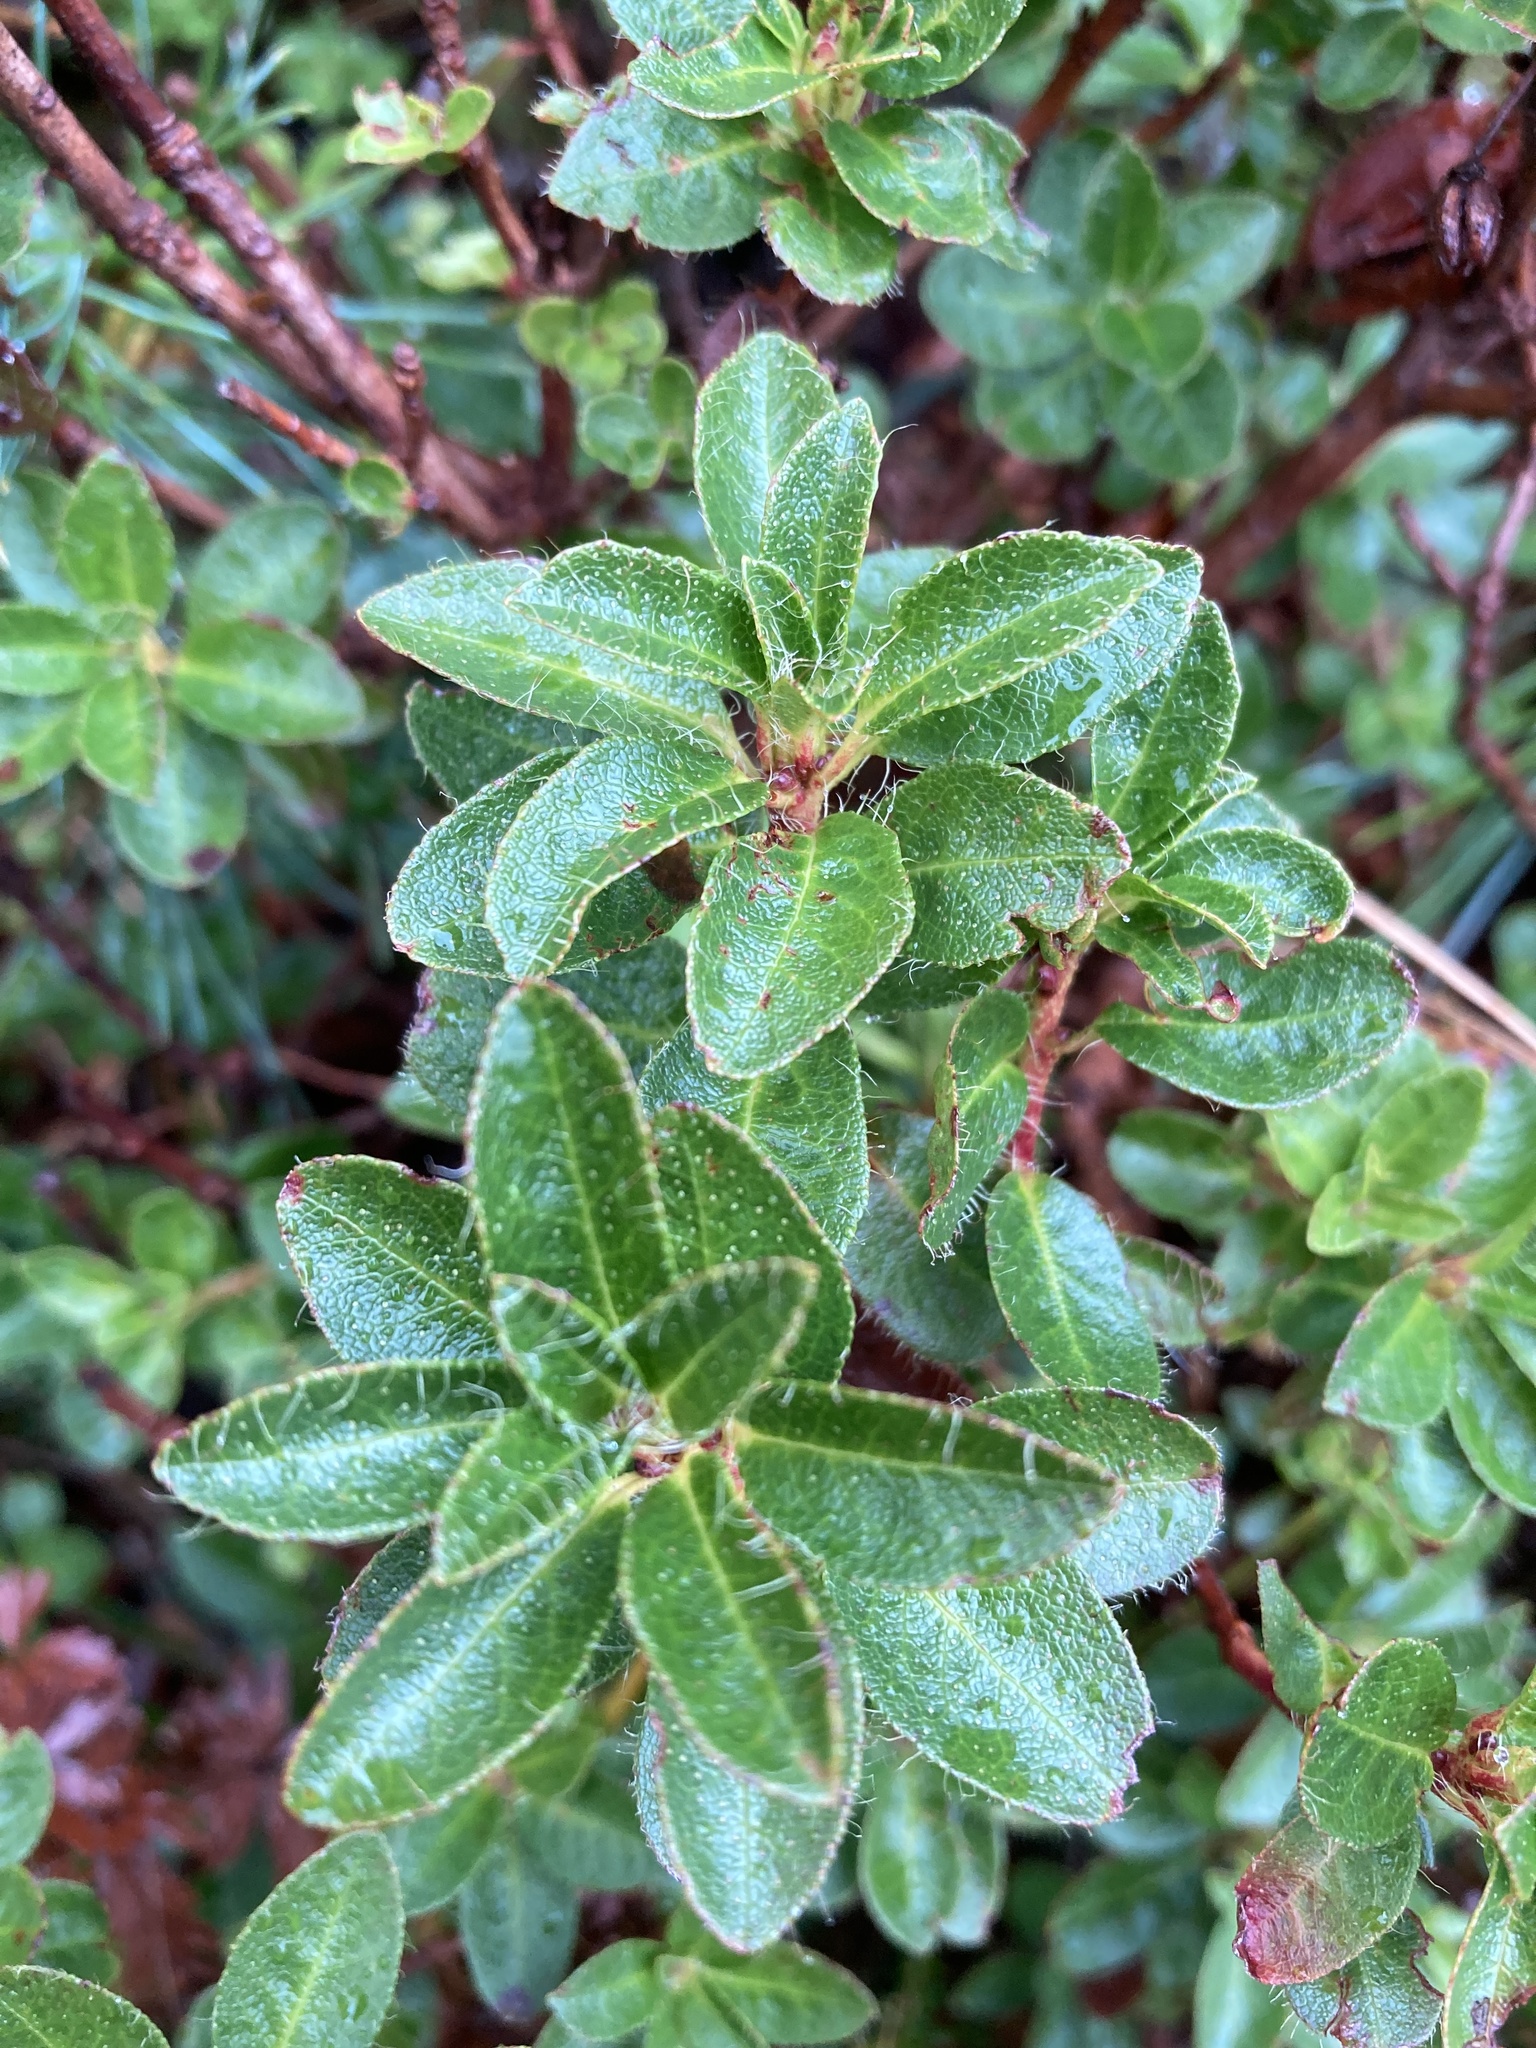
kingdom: Plantae
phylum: Tracheophyta
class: Magnoliopsida
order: Ericales
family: Ericaceae
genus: Rhododendron
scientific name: Rhododendron hirsutum
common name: Hairy alpenrose
